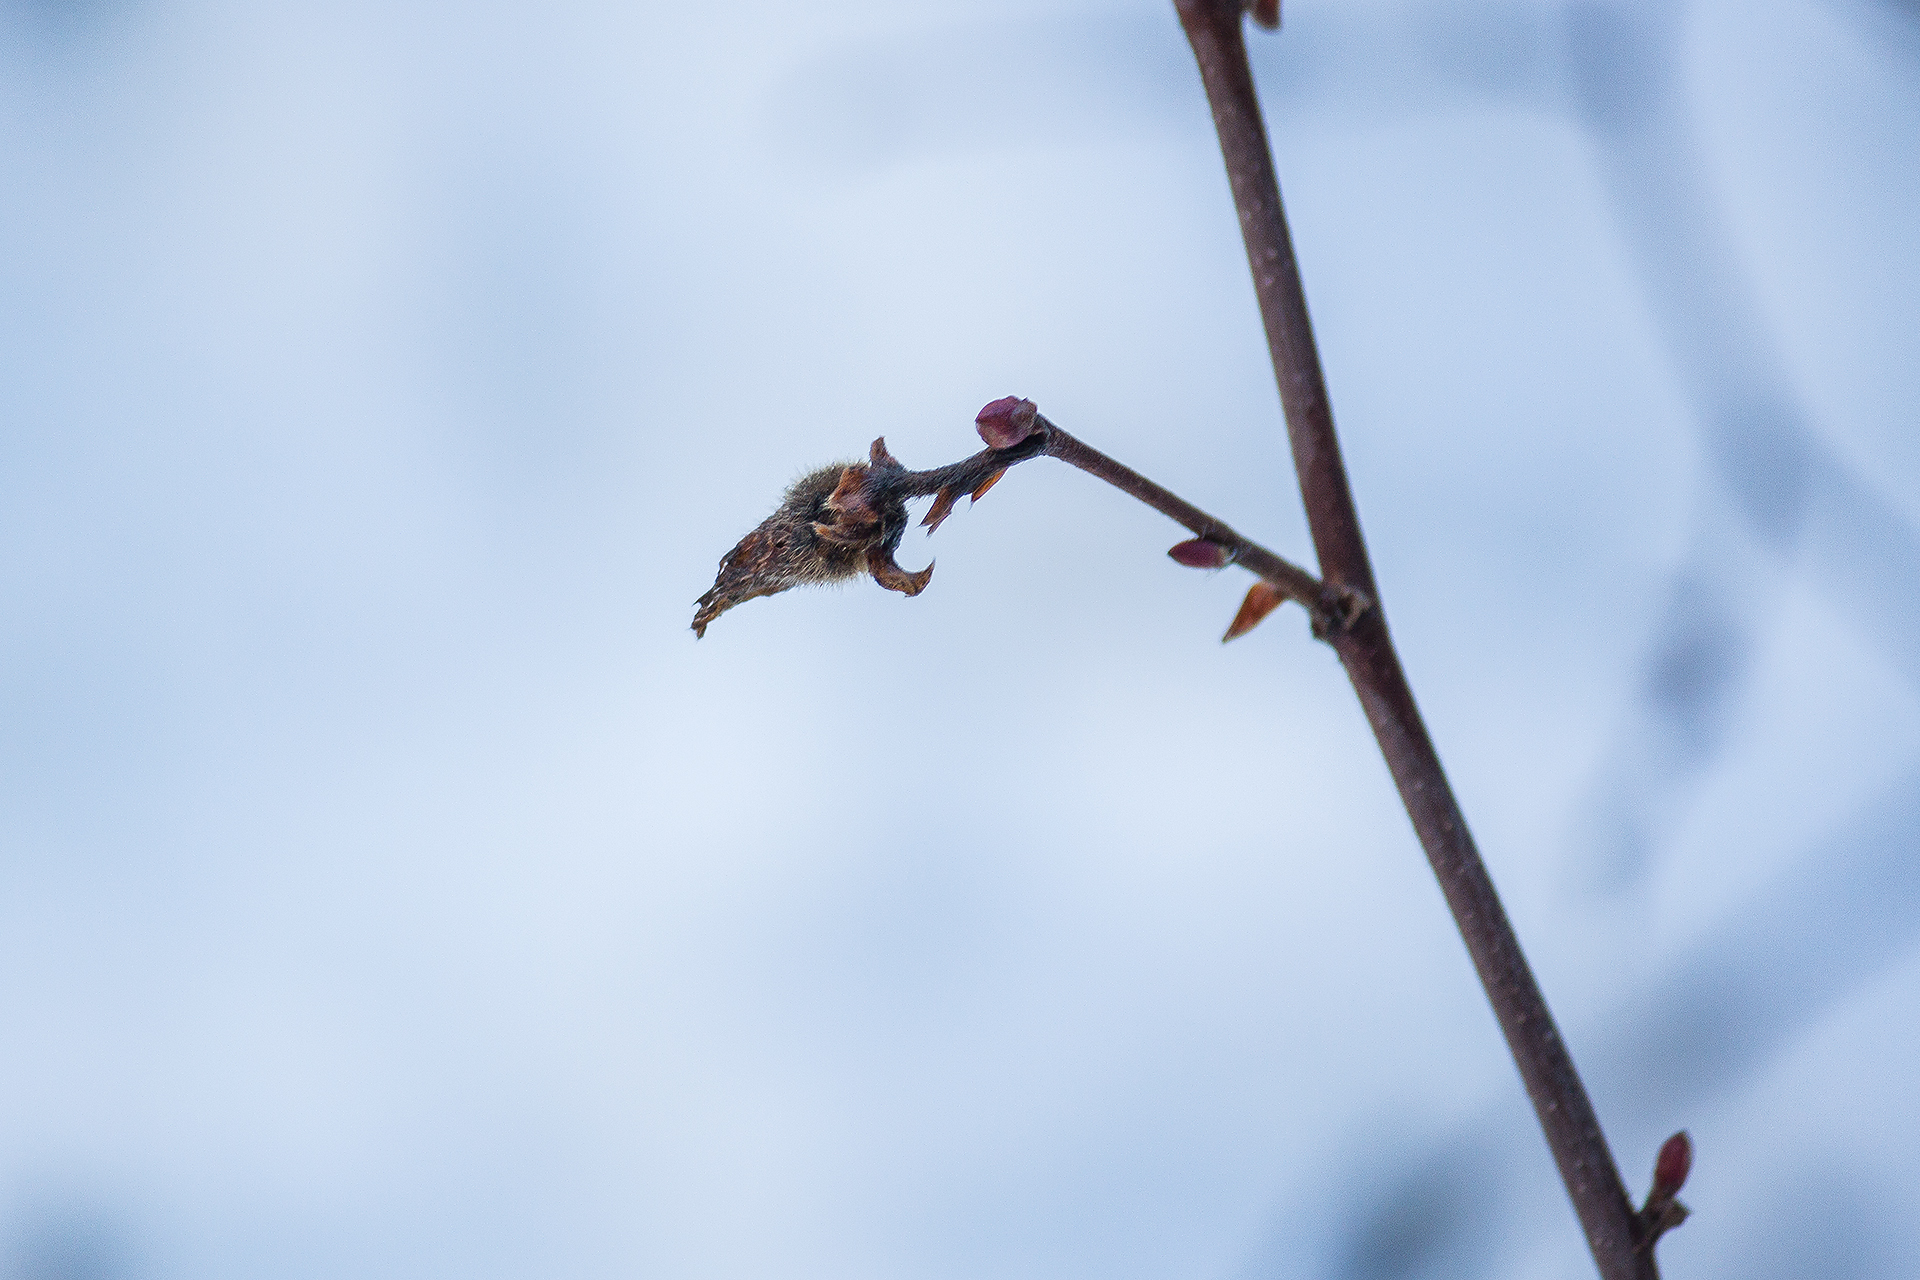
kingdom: Plantae
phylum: Tracheophyta
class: Magnoliopsida
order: Fagales
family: Betulaceae
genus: Corylus
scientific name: Corylus cornuta
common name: Beaked hazel
